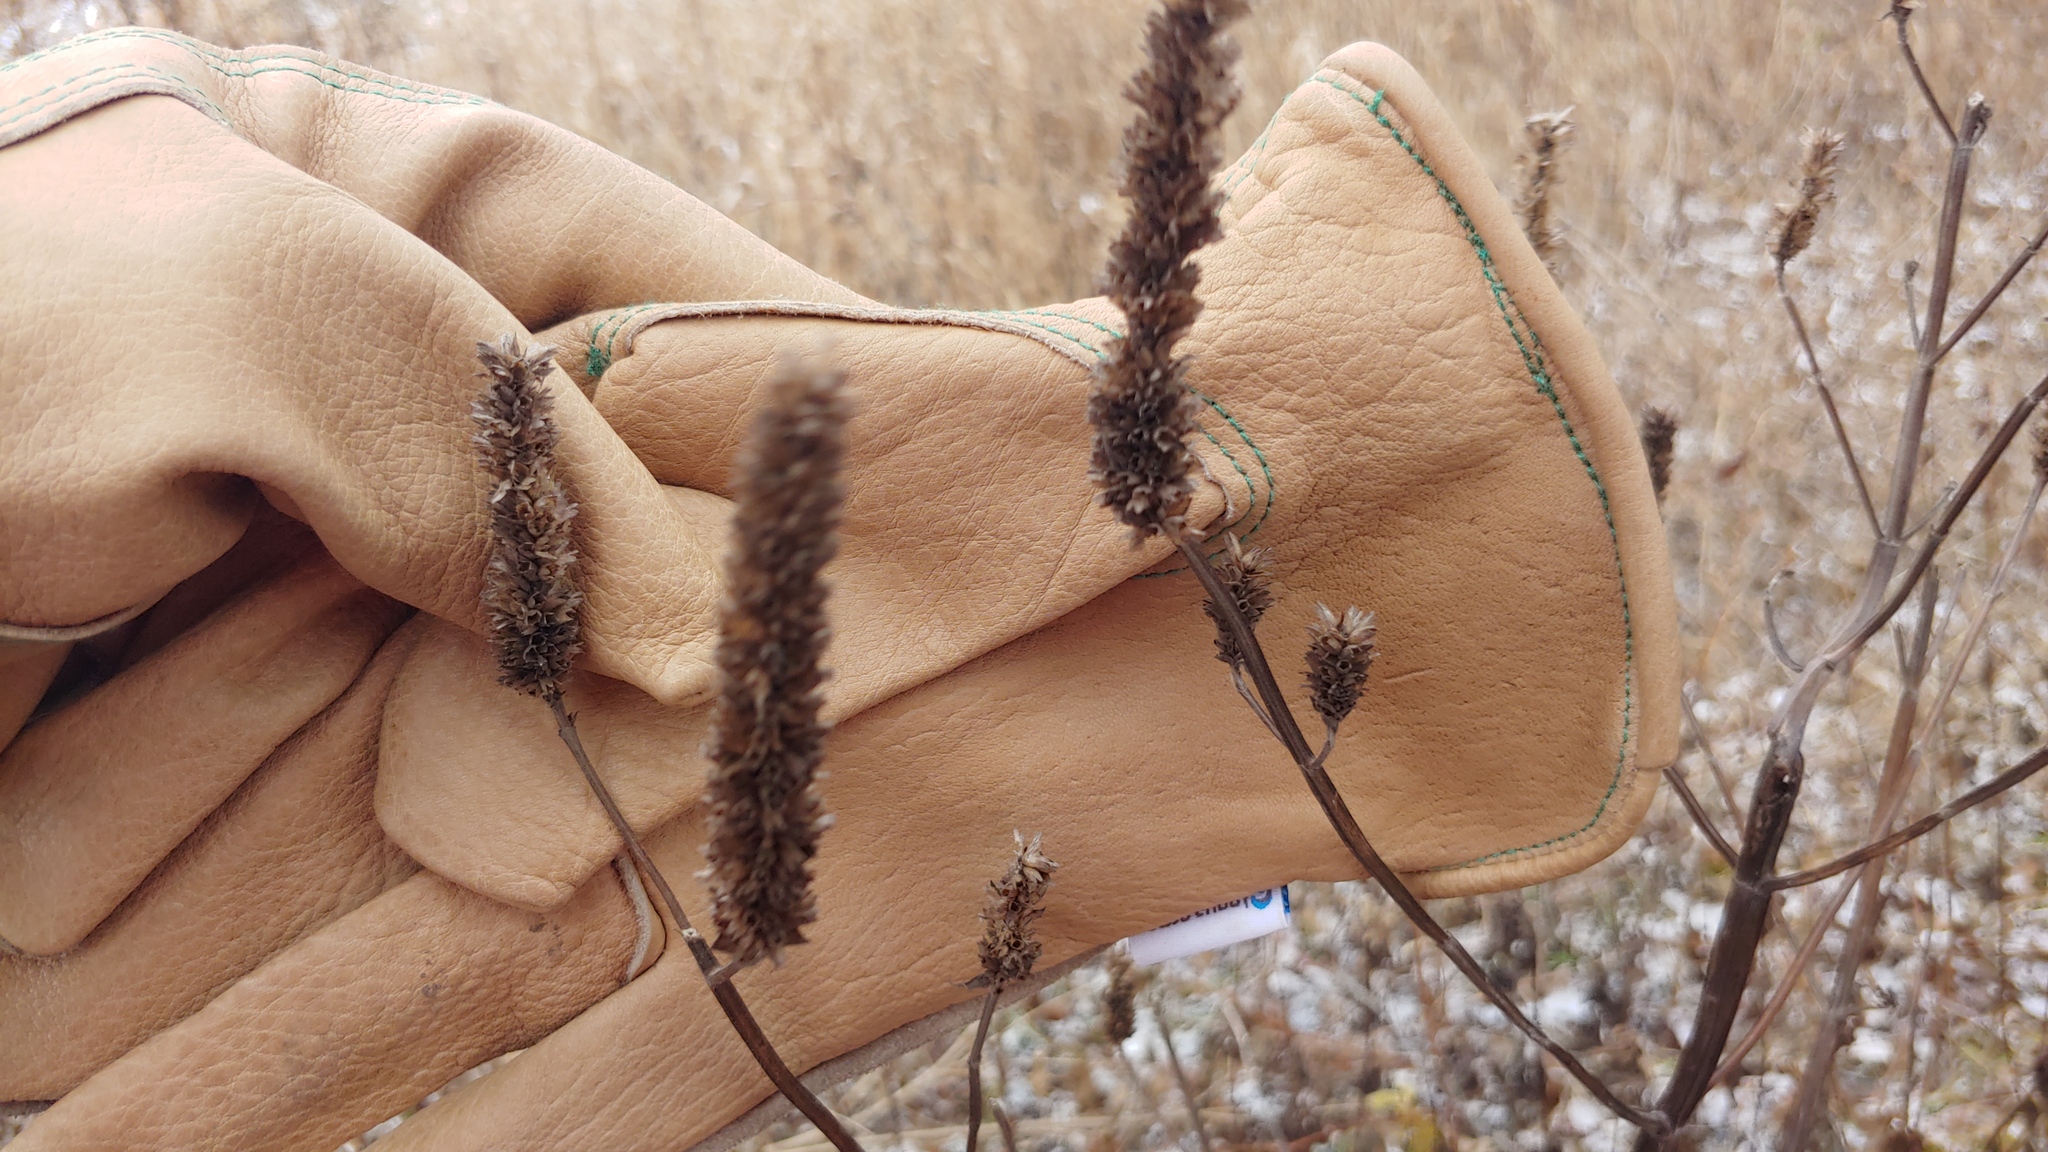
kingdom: Plantae
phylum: Tracheophyta
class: Magnoliopsida
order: Lamiales
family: Lamiaceae
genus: Agastache
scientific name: Agastache nepetoides
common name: Catnip giant hyssop
